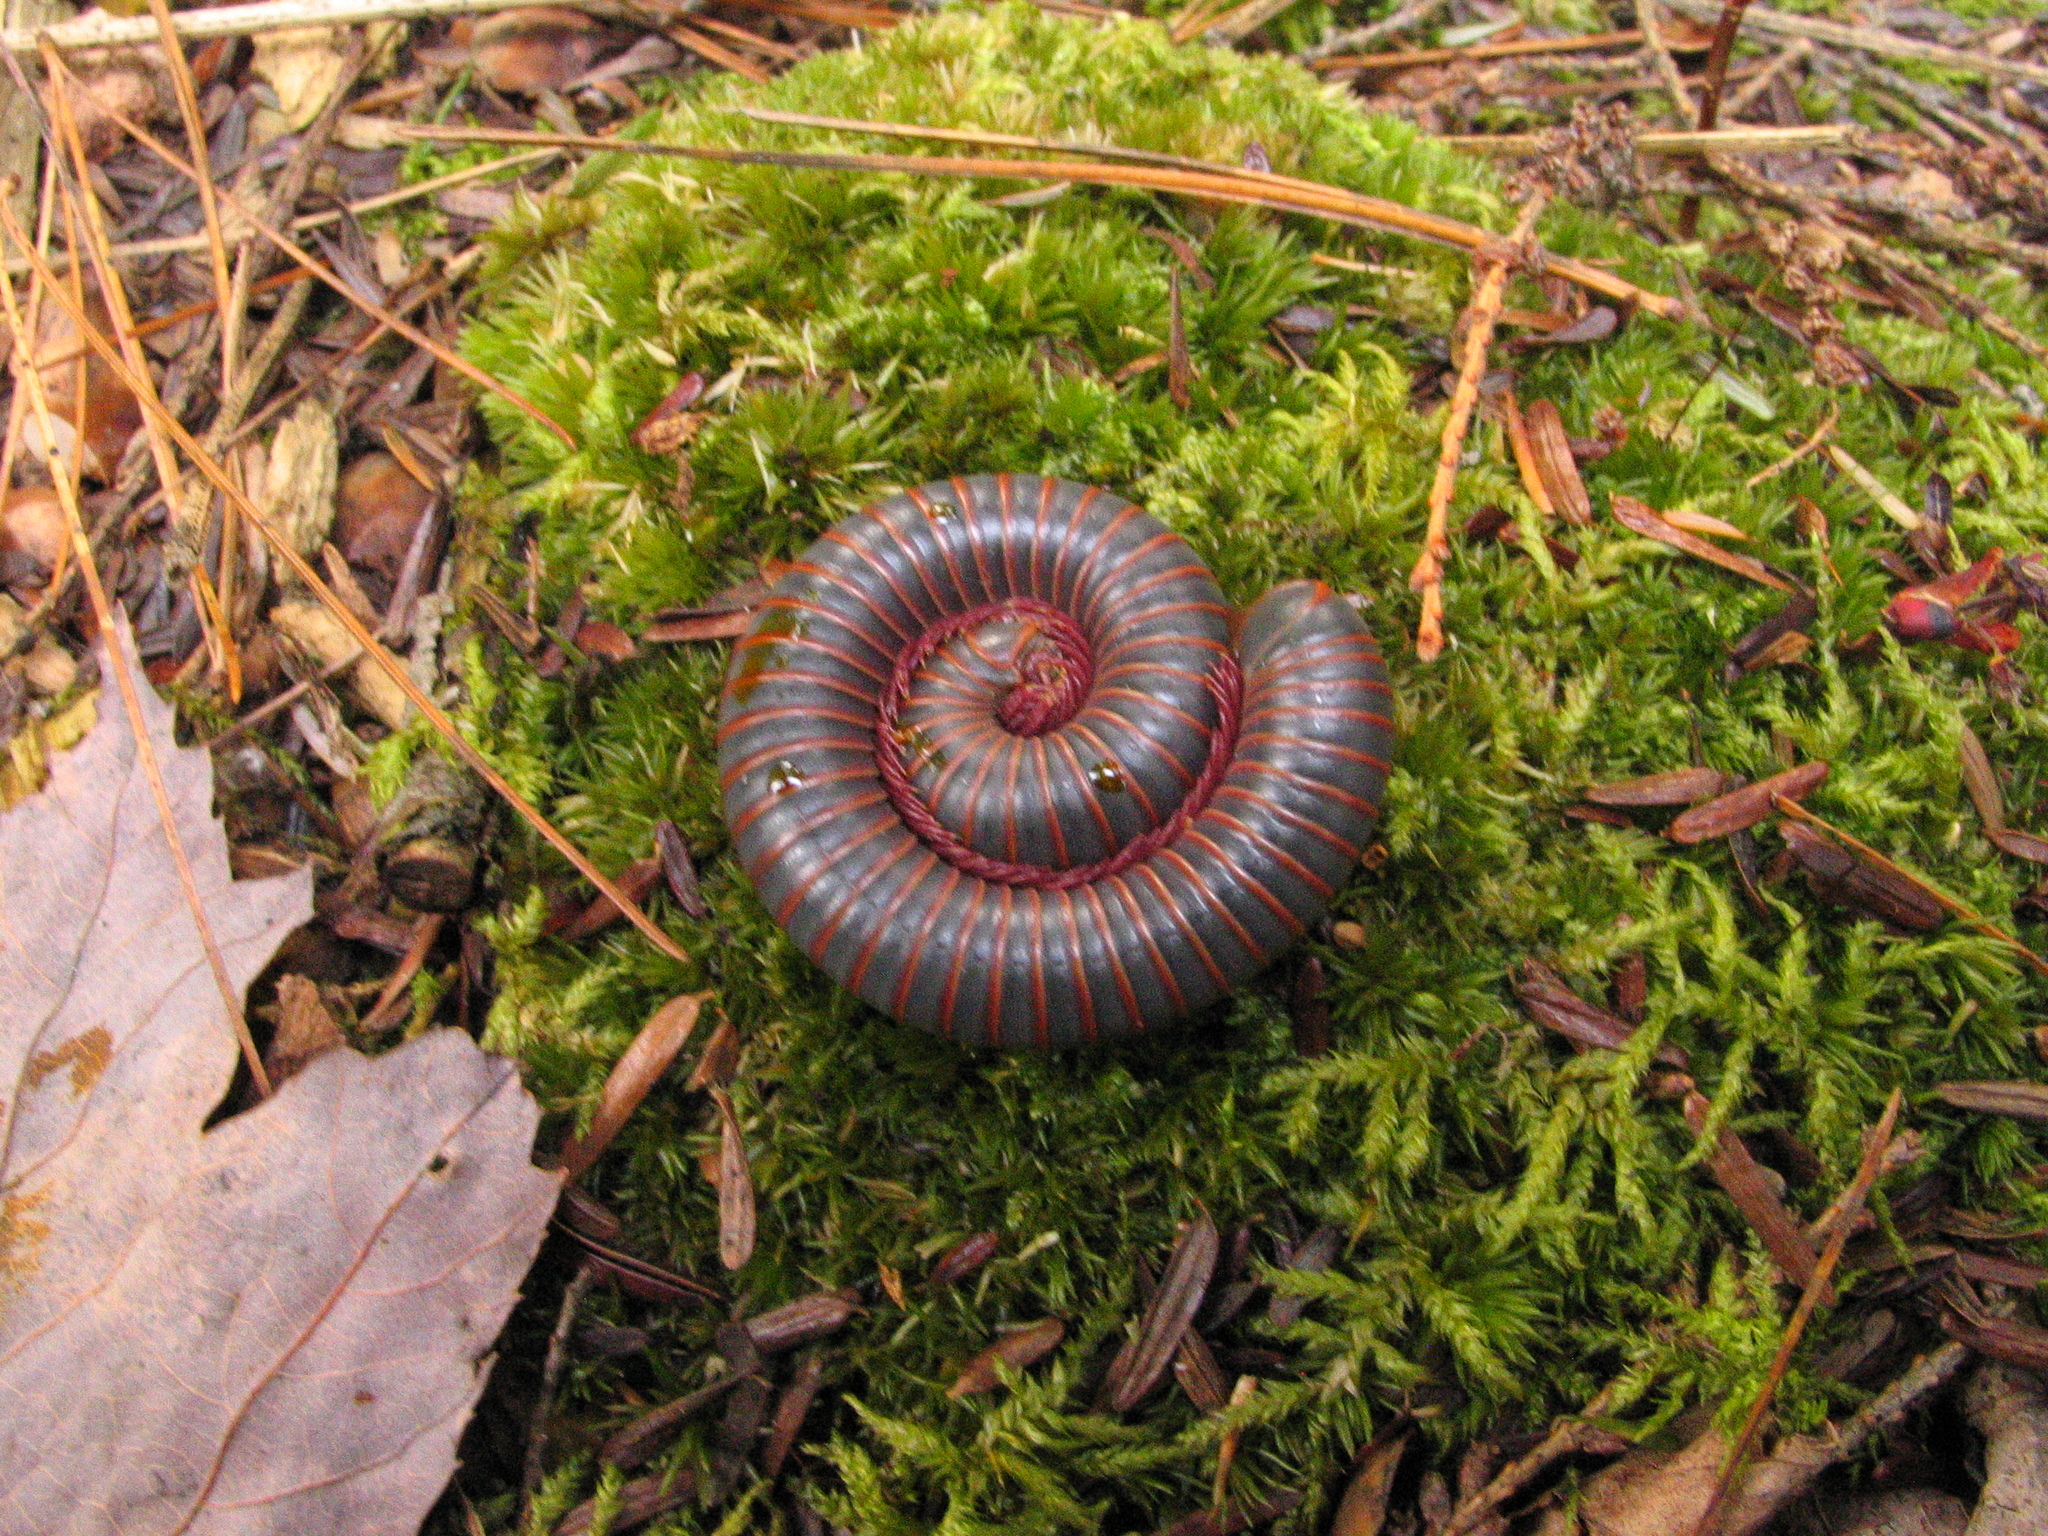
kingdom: Animalia
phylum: Arthropoda
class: Diplopoda
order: Spirobolida
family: Spirobolidae
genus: Narceus
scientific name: Narceus americanus
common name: American giant millipede
